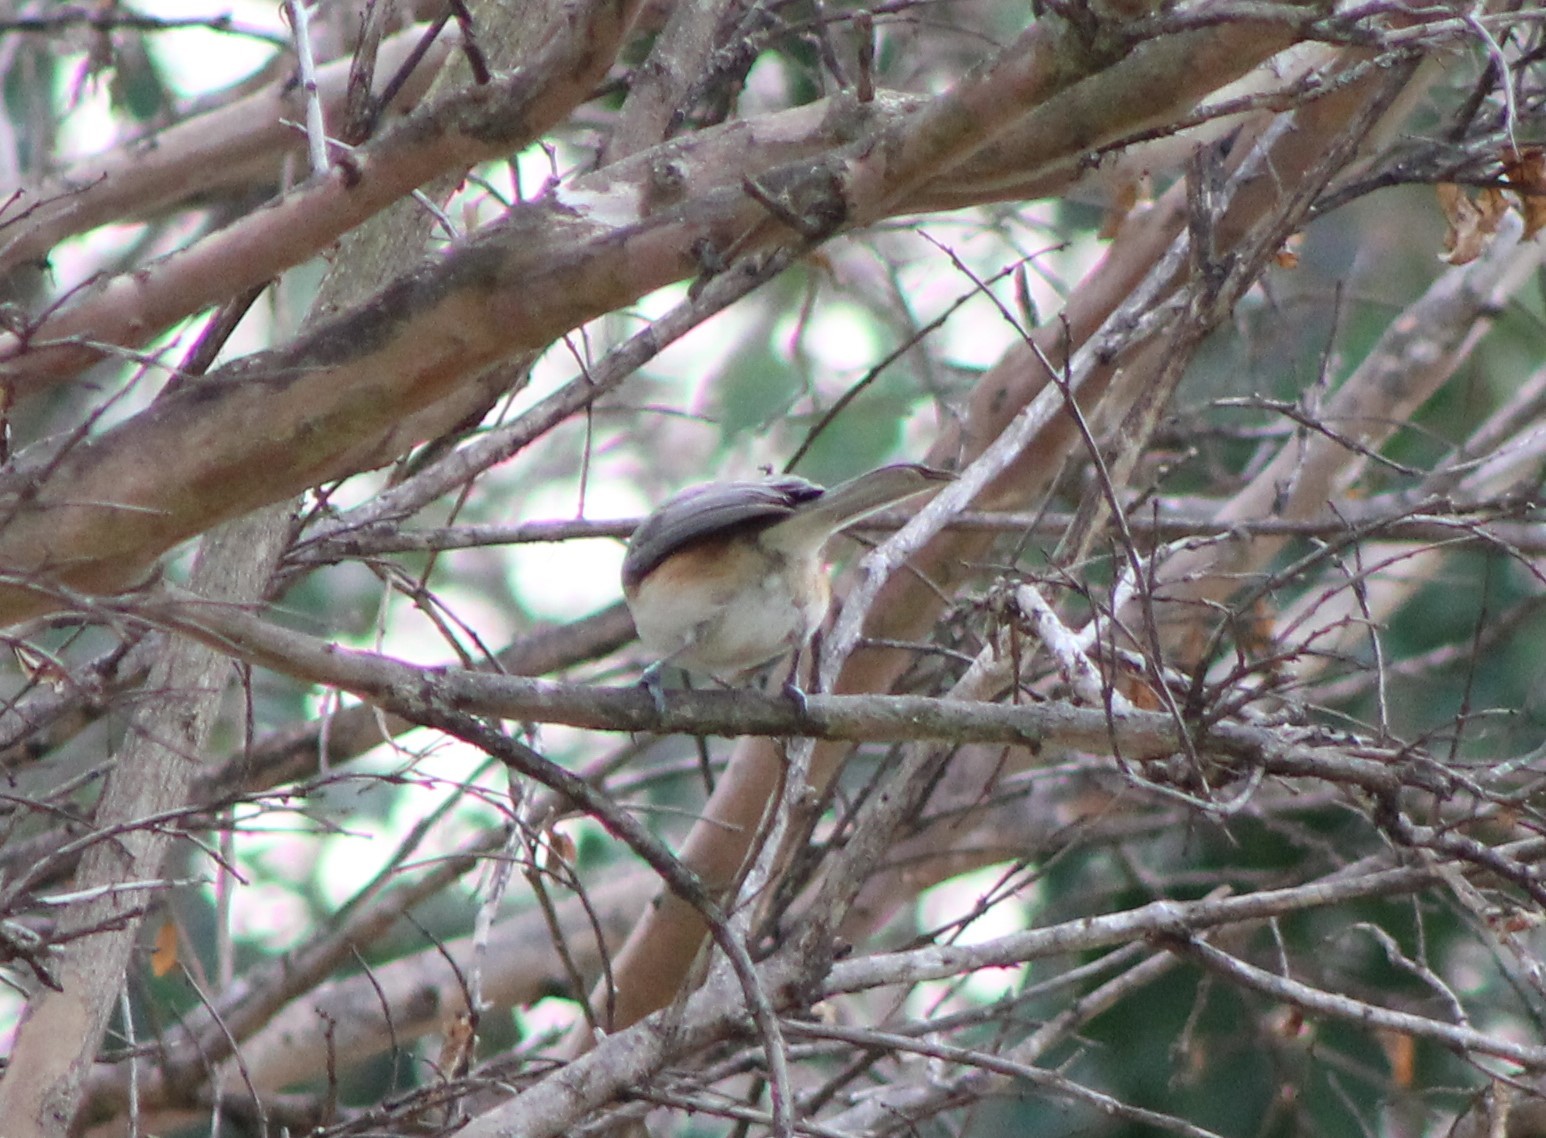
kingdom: Animalia
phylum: Chordata
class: Aves
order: Passeriformes
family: Paridae
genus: Baeolophus
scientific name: Baeolophus bicolor
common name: Tufted titmouse
